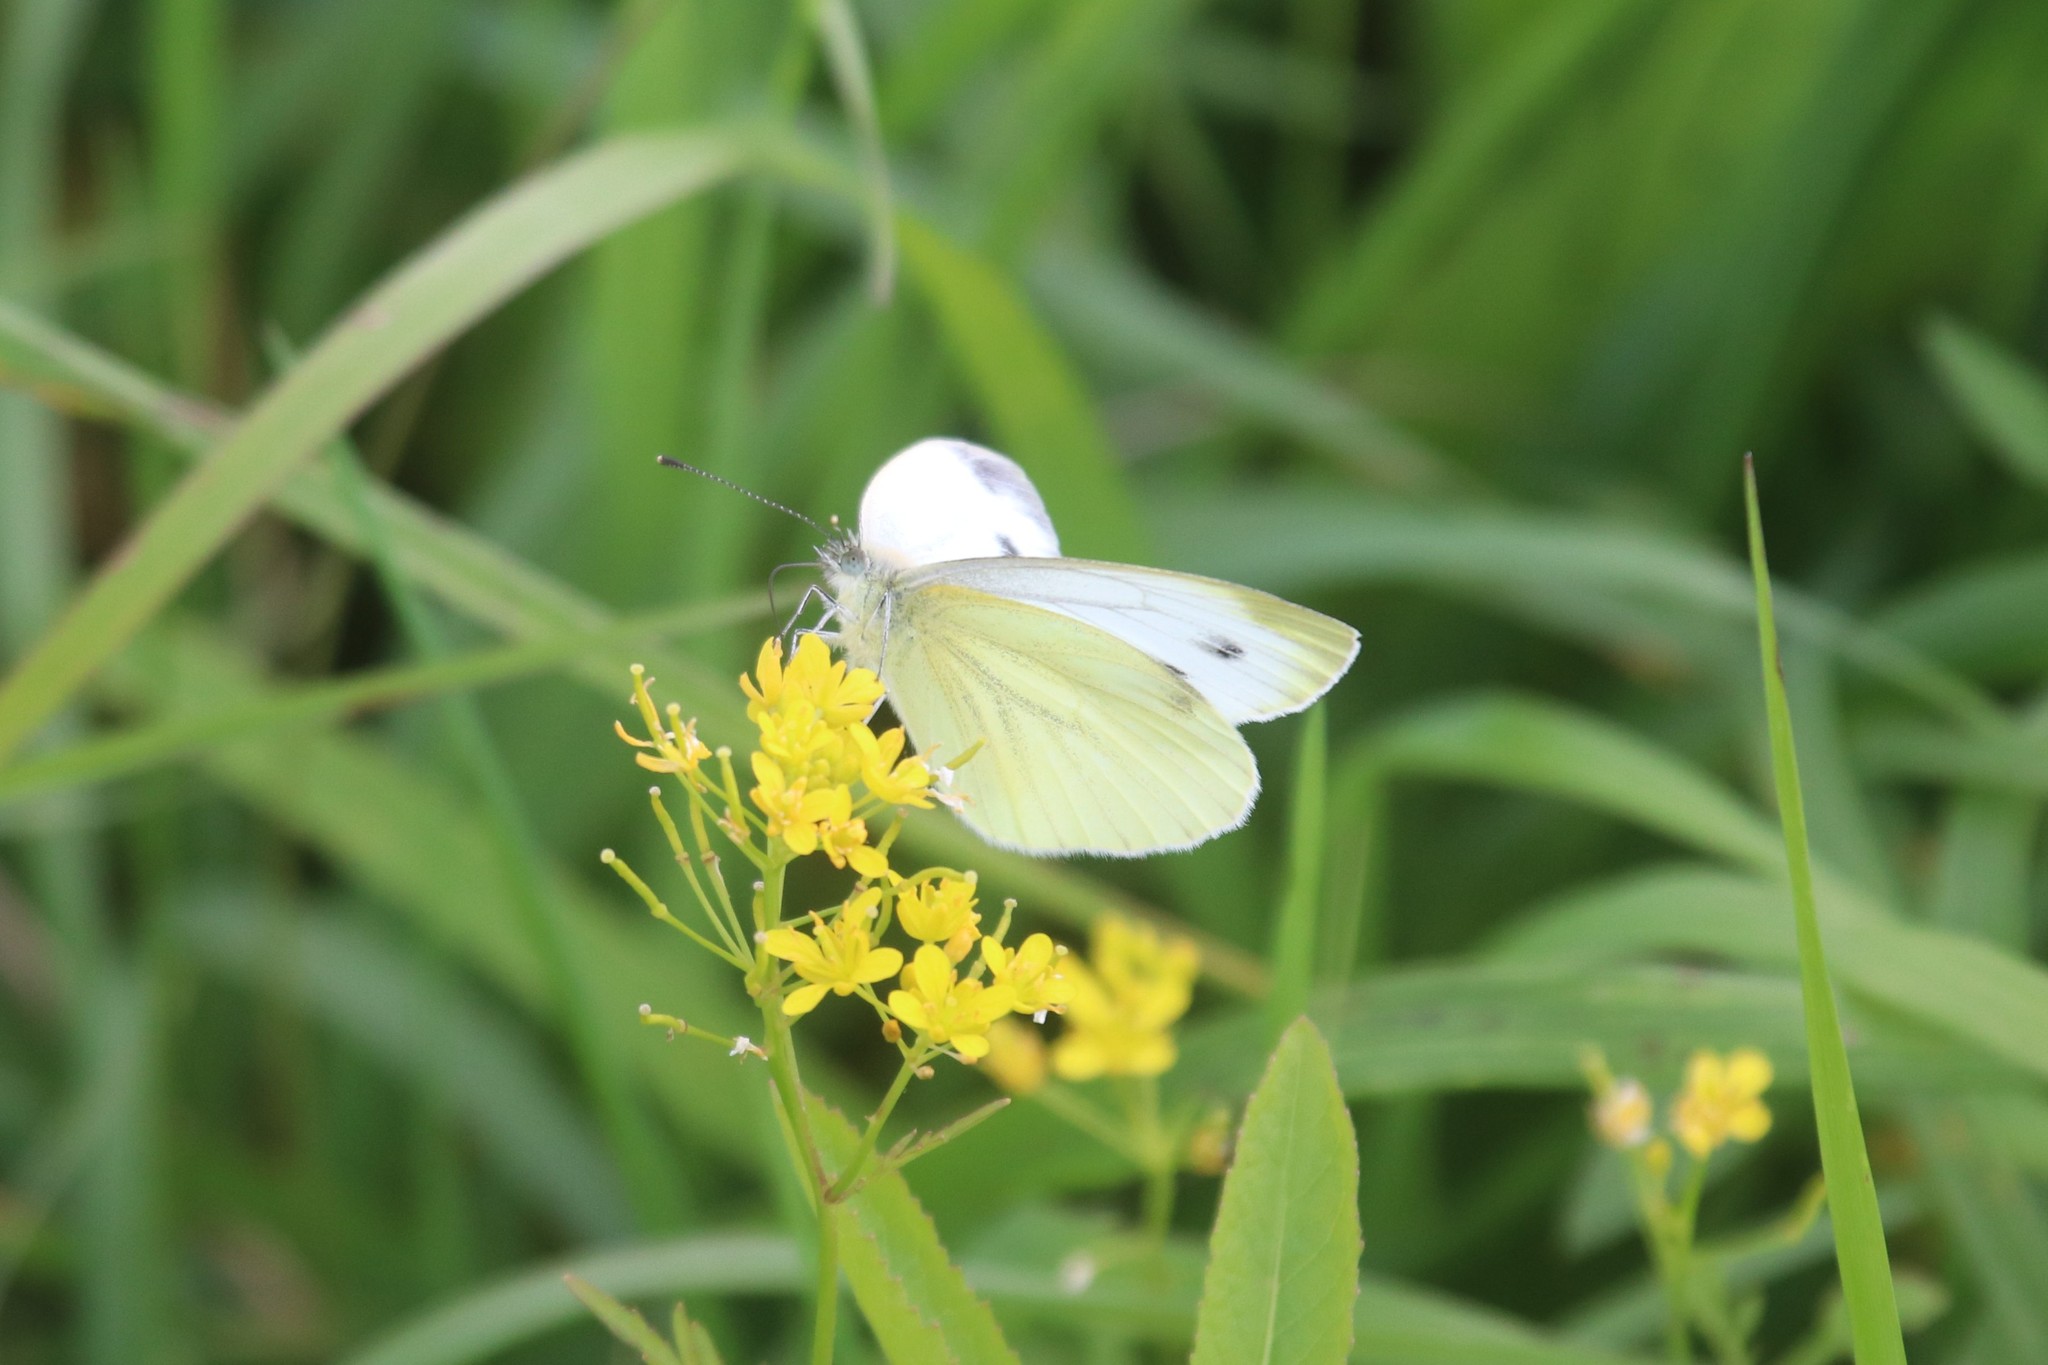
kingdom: Animalia
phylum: Arthropoda
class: Insecta
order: Lepidoptera
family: Pieridae
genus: Pieris
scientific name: Pieris napi
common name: Green-veined white
